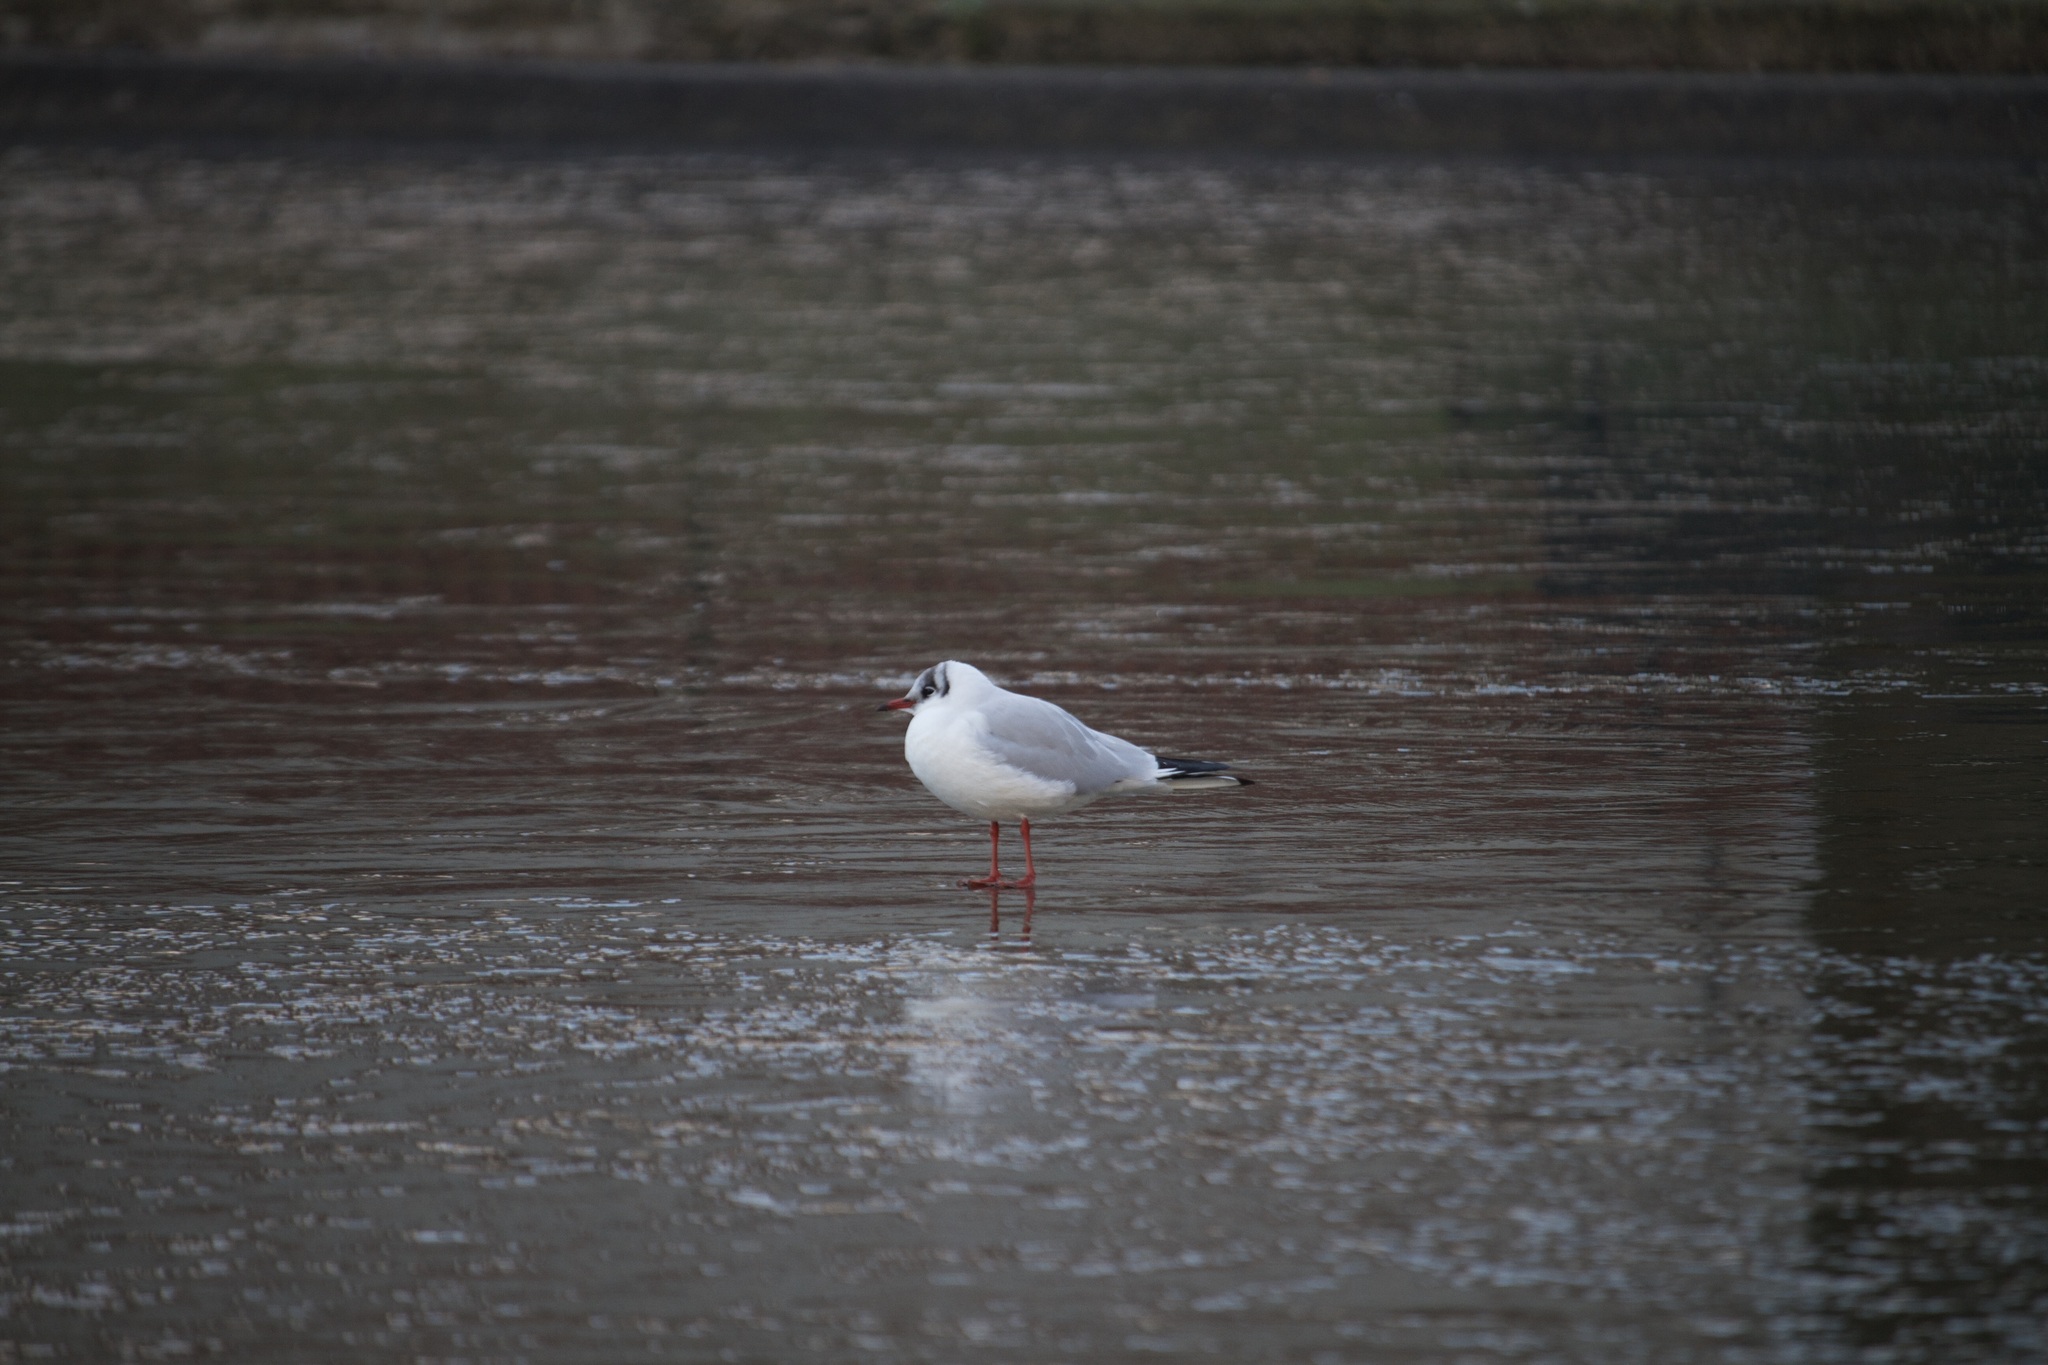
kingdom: Animalia
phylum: Chordata
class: Aves
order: Charadriiformes
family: Laridae
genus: Chroicocephalus
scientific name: Chroicocephalus ridibundus
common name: Black-headed gull
